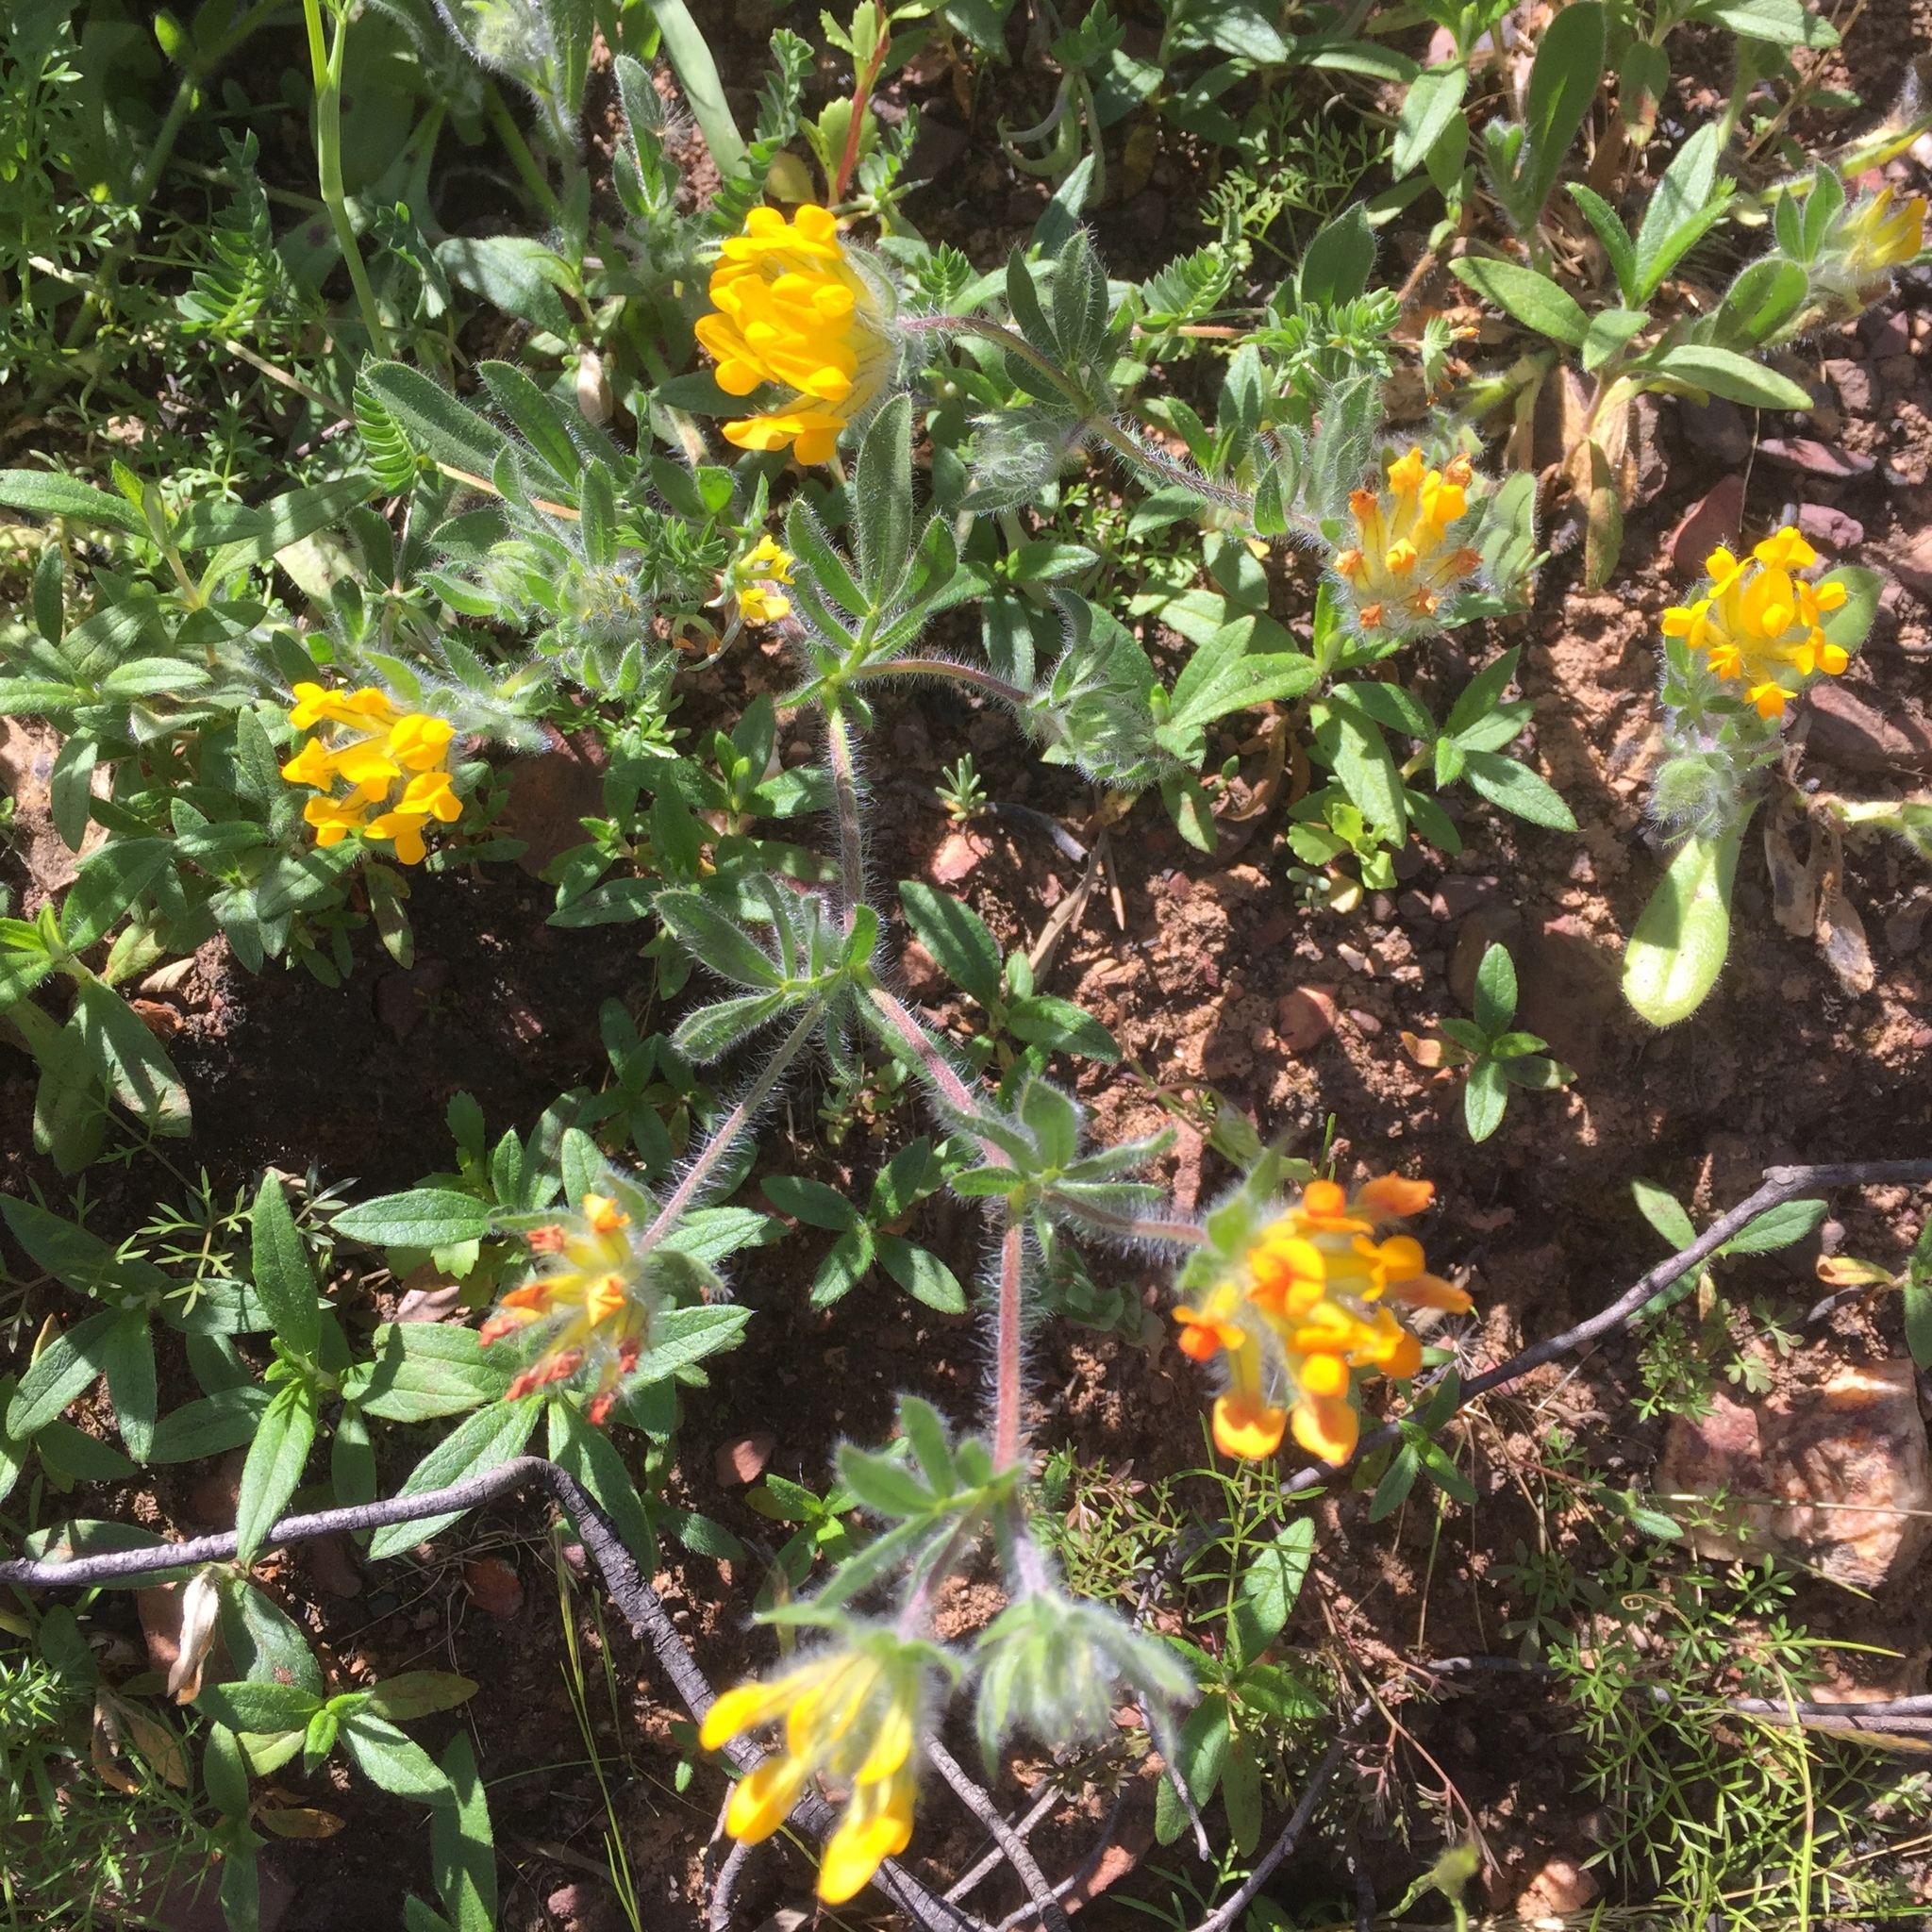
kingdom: Plantae
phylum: Tracheophyta
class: Magnoliopsida
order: Fabales
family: Fabaceae
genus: Anthyllis
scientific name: Anthyllis lotoides
